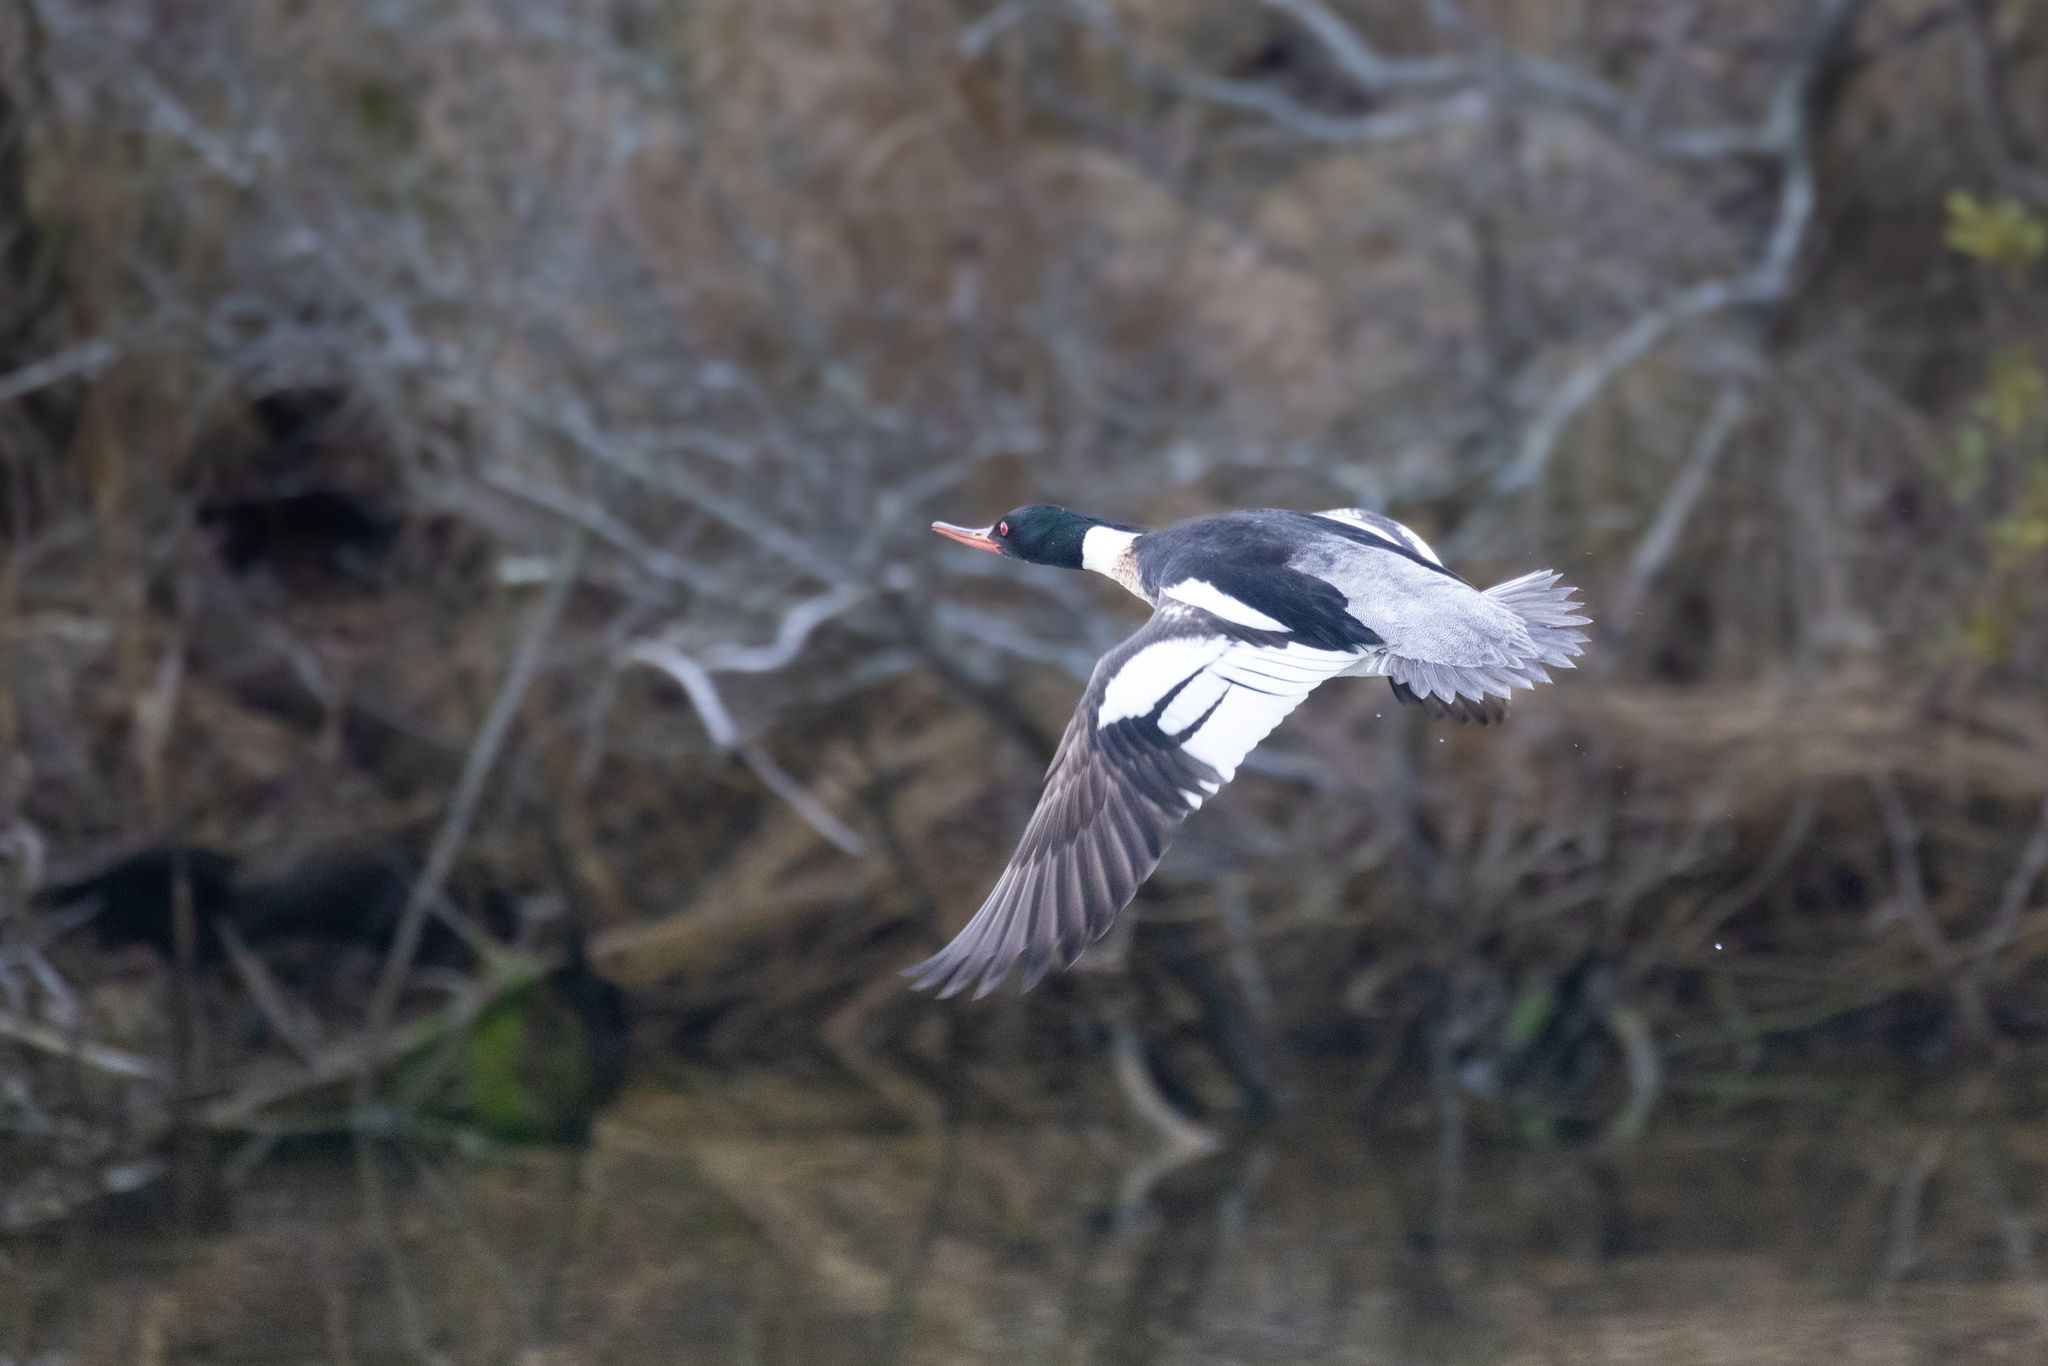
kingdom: Animalia
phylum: Chordata
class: Aves
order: Anseriformes
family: Anatidae
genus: Mergus
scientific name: Mergus serrator
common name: Red-breasted merganser
